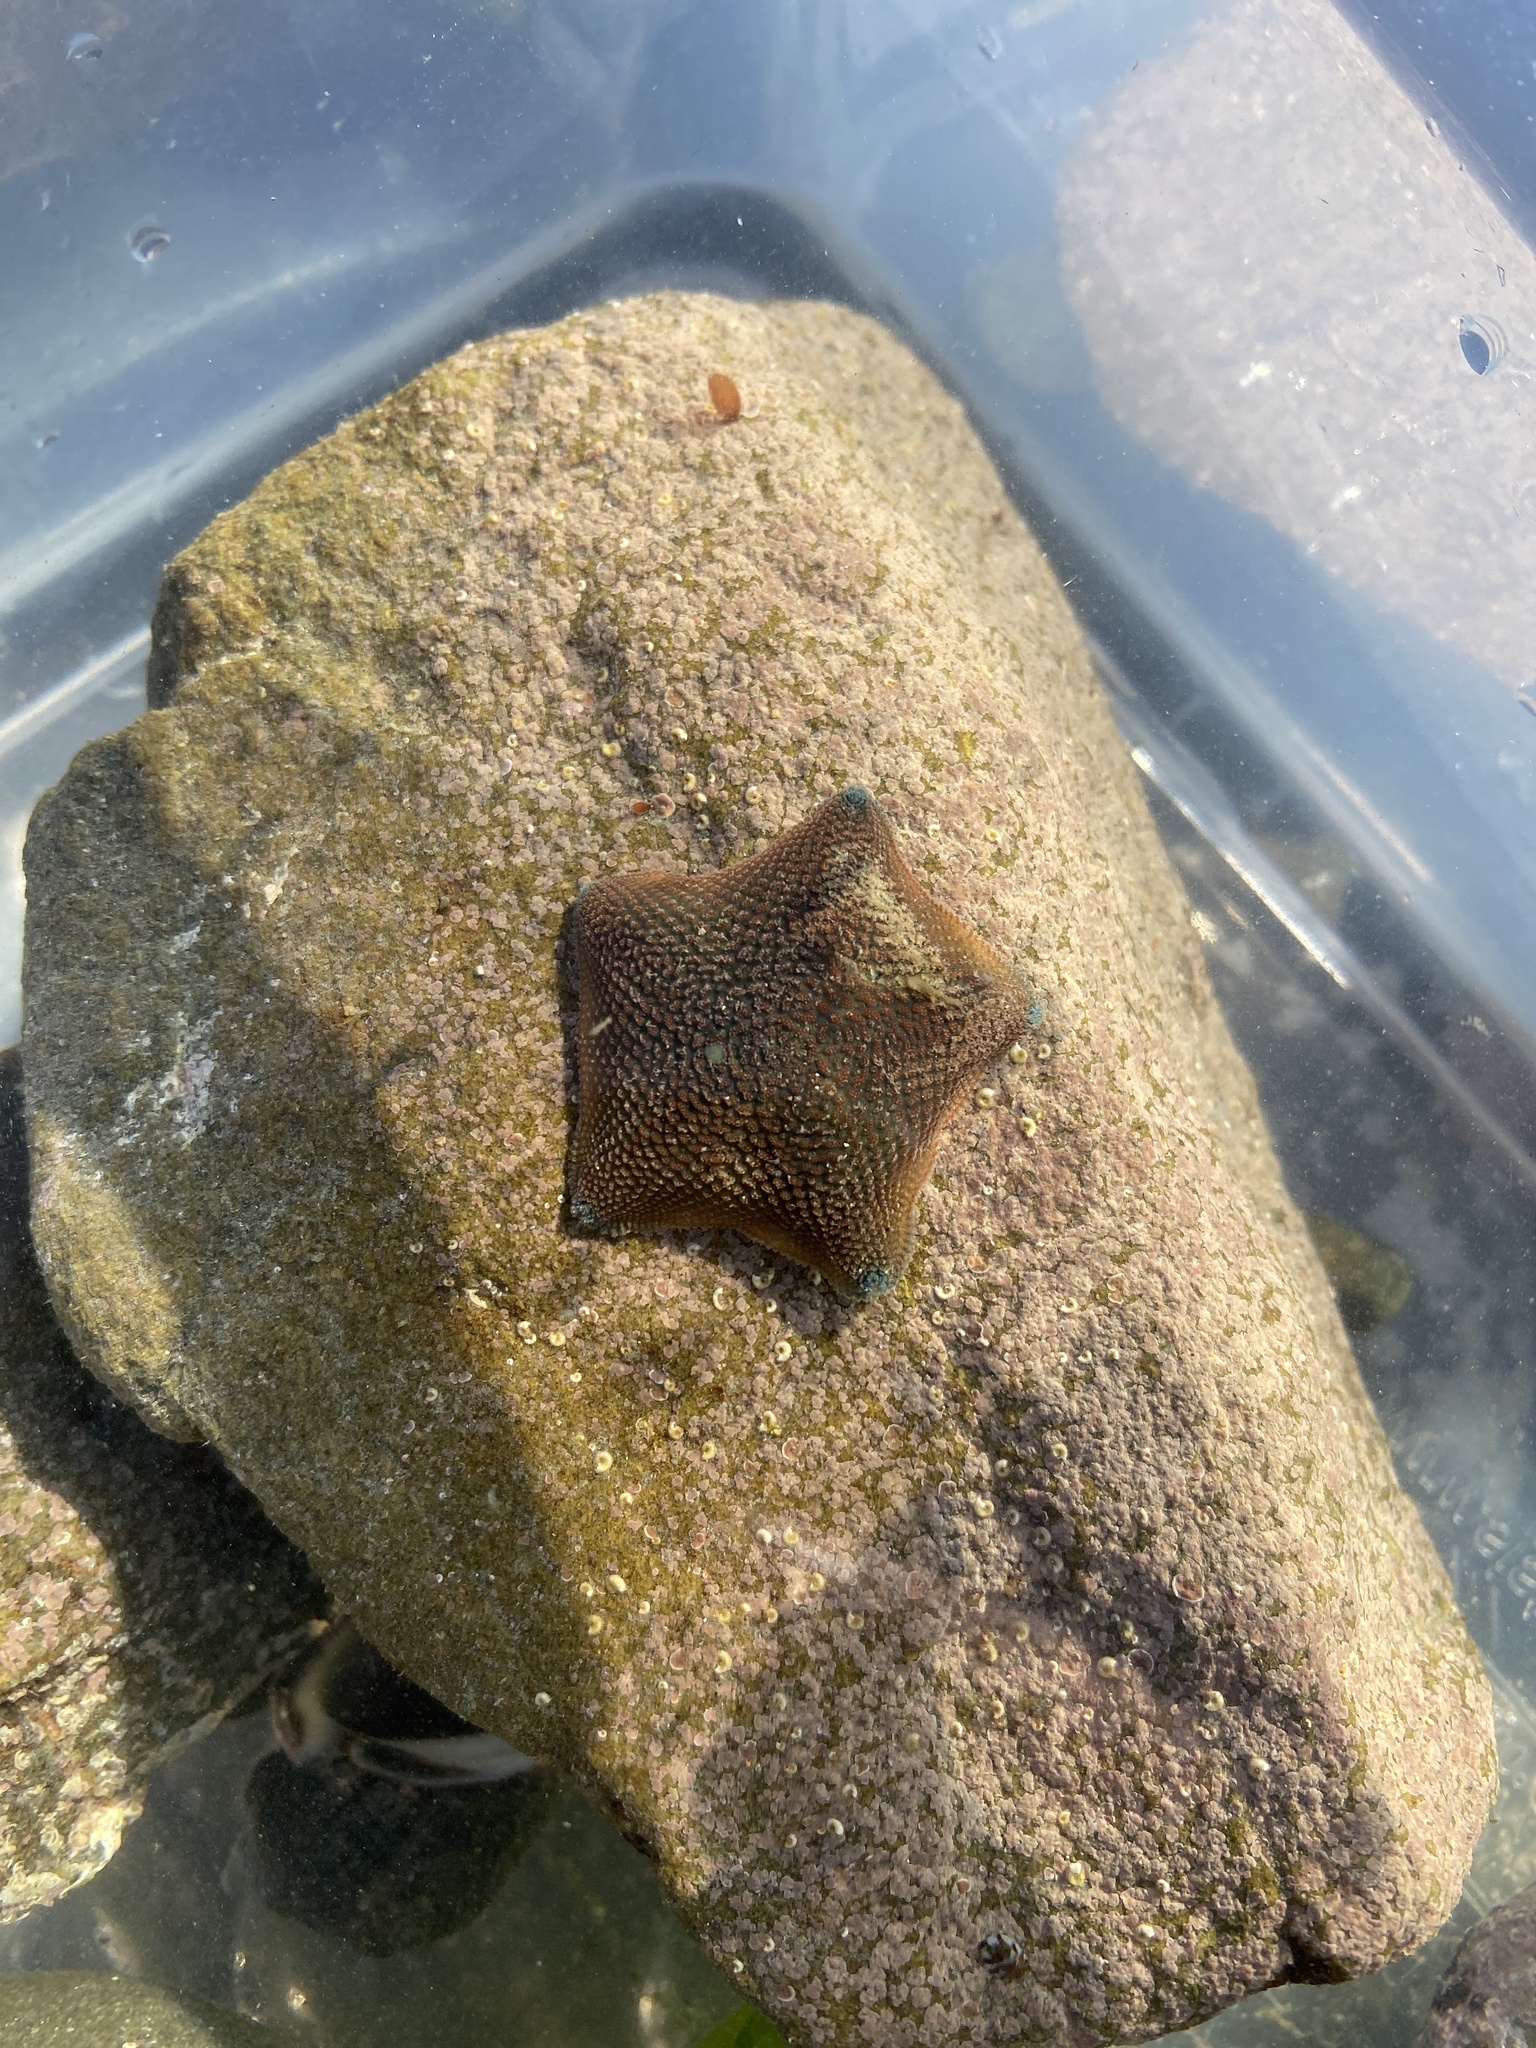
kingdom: Animalia
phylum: Echinodermata
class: Asteroidea
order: Valvatida
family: Asterinidae
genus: Patiriella
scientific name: Patiriella regularis
